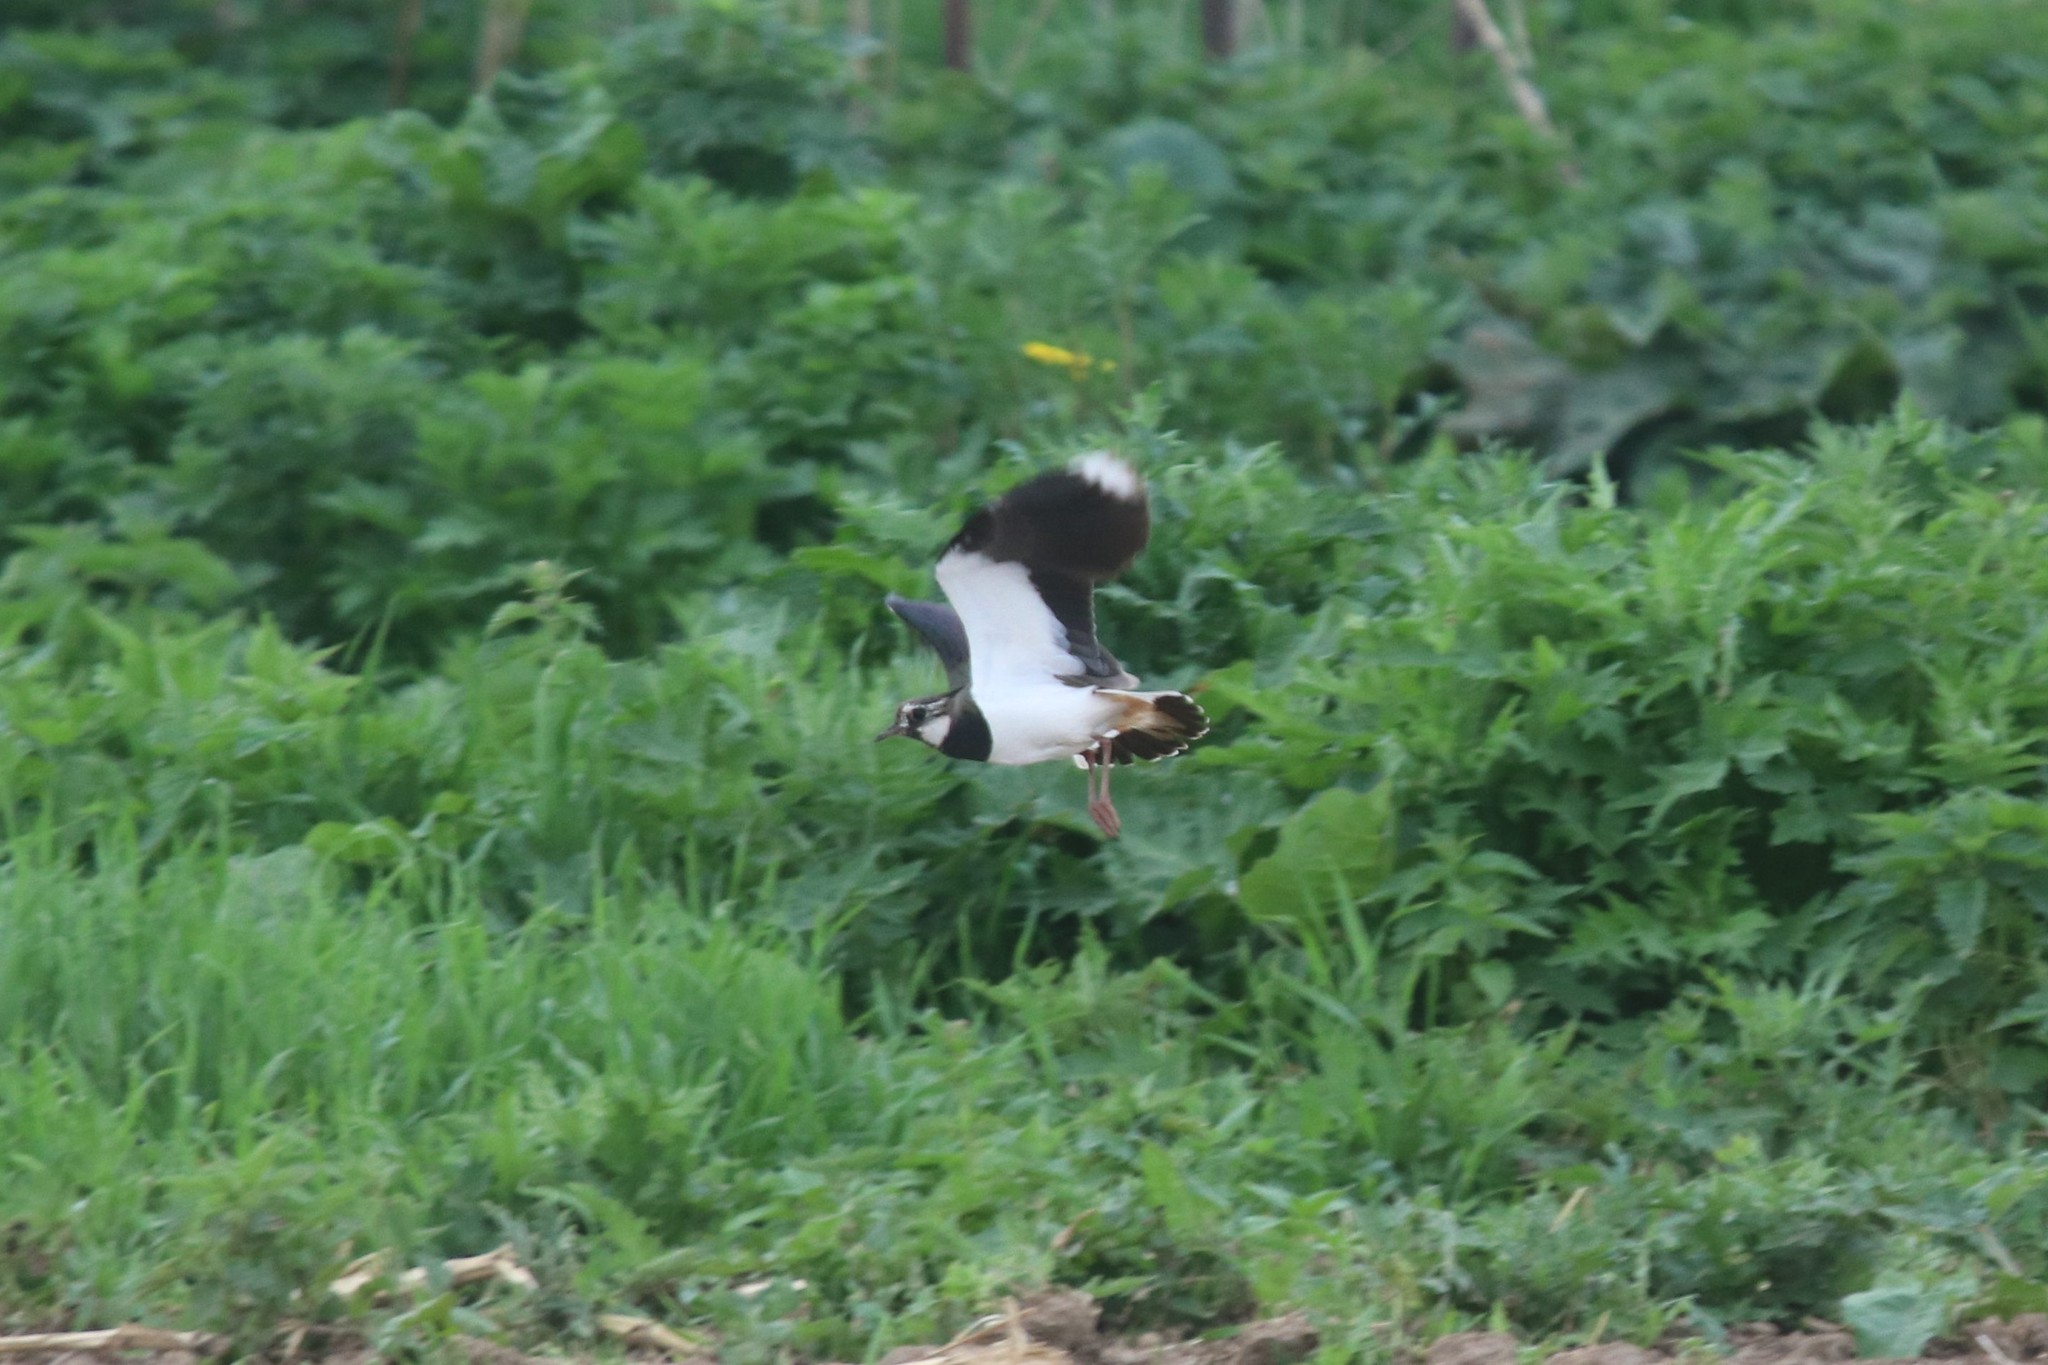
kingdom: Animalia
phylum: Chordata
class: Aves
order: Charadriiformes
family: Charadriidae
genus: Vanellus
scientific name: Vanellus vanellus
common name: Northern lapwing
